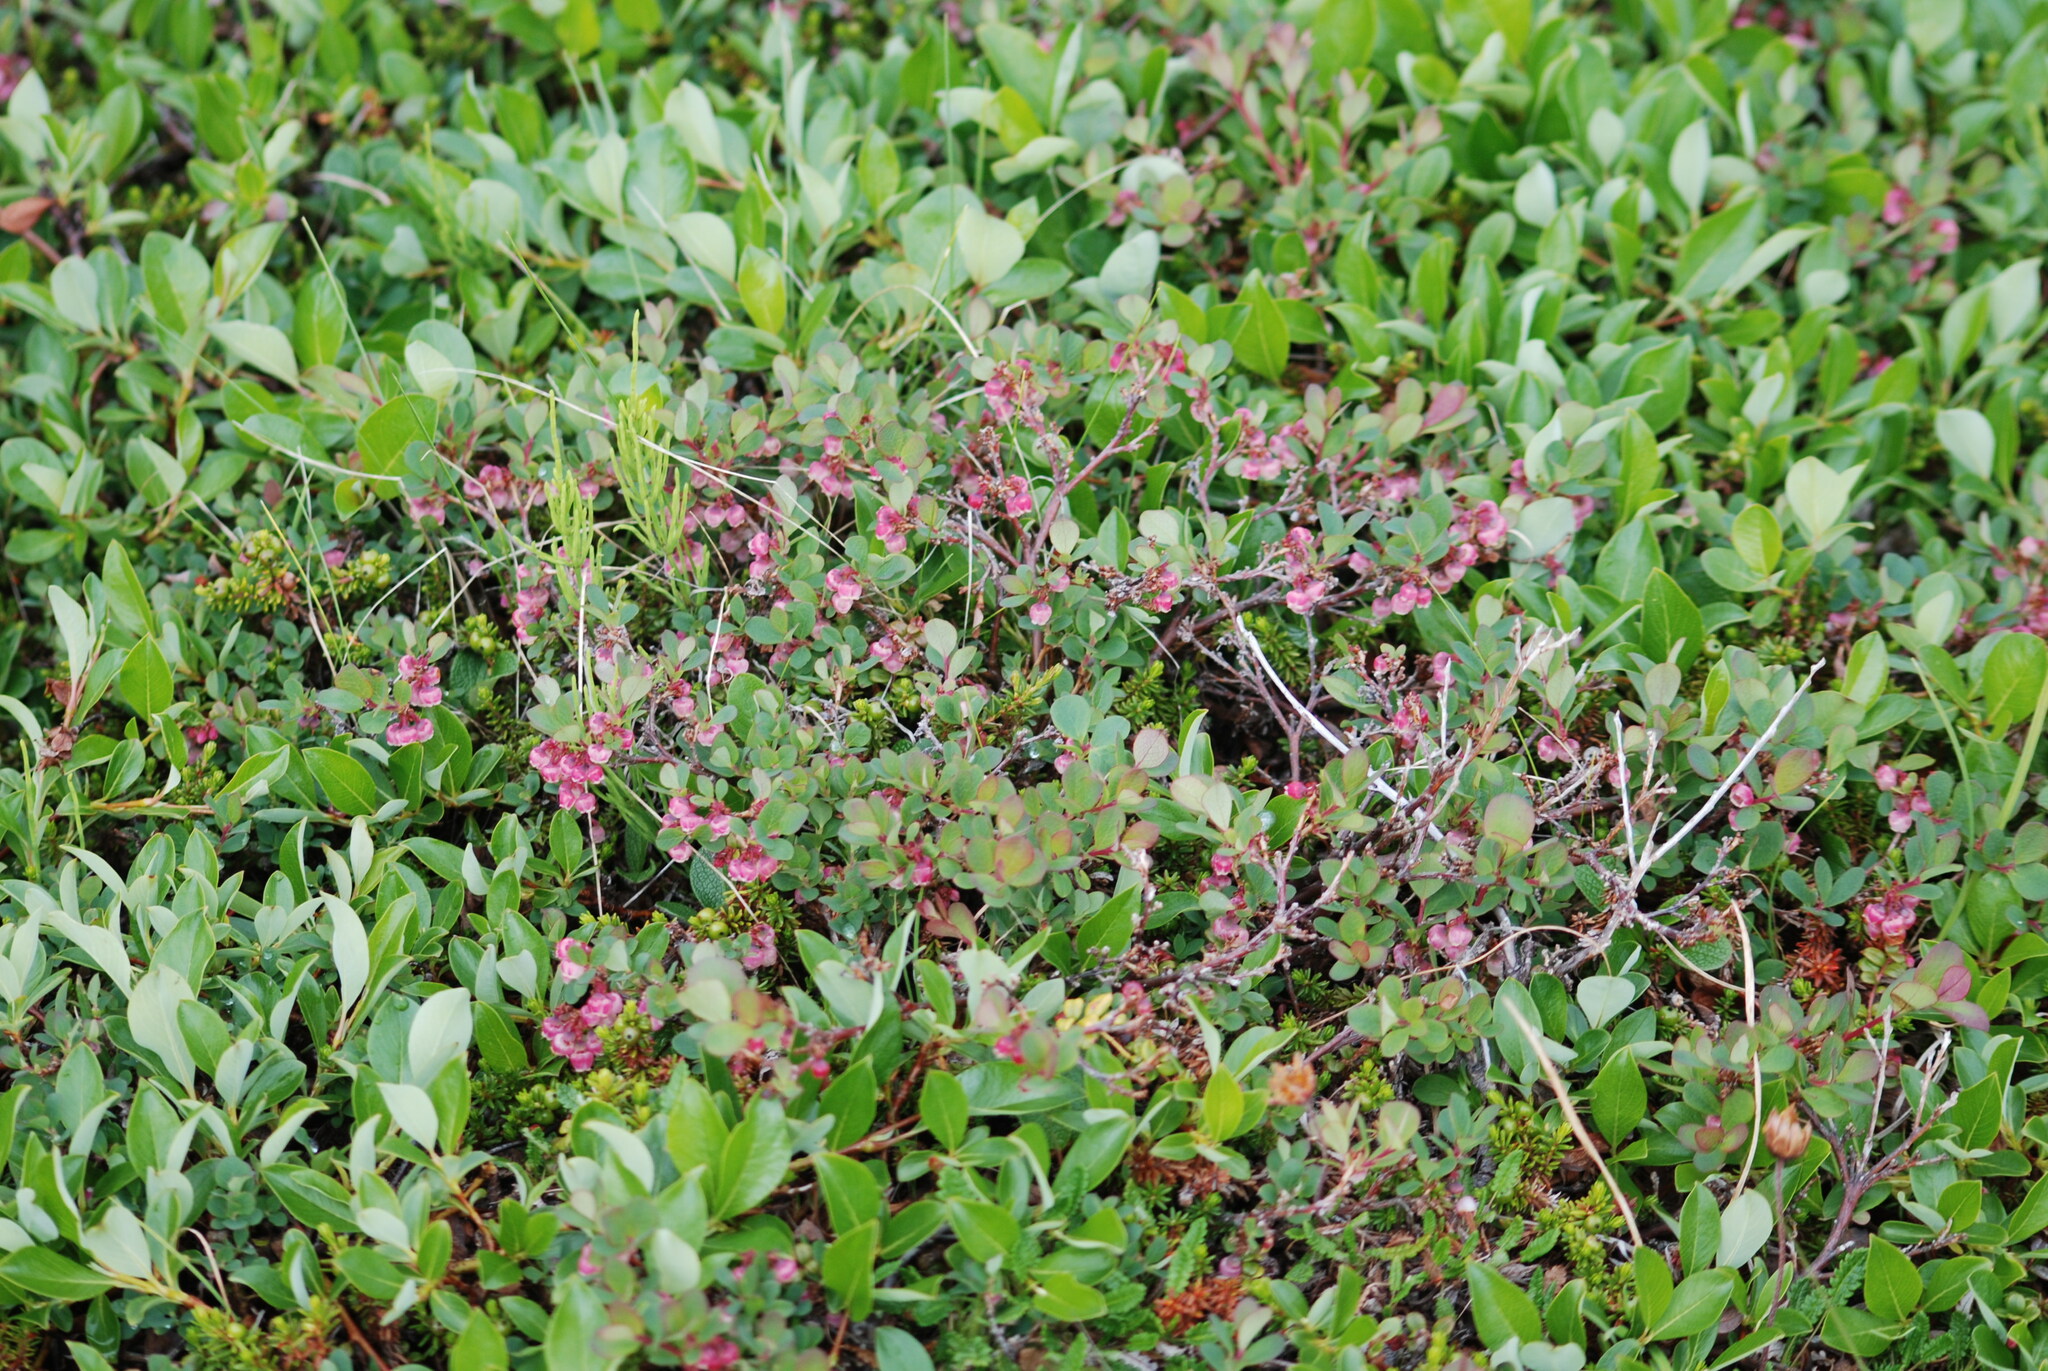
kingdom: Plantae
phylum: Tracheophyta
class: Magnoliopsida
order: Ericales
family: Ericaceae
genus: Vaccinium
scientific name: Vaccinium uliginosum
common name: Bog bilberry
